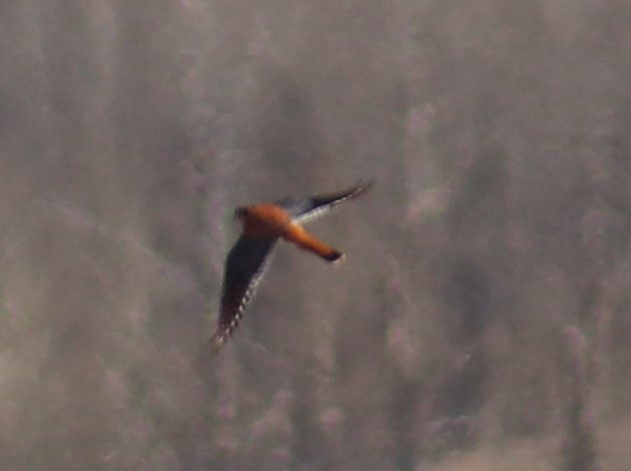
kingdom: Animalia
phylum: Chordata
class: Aves
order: Falconiformes
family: Falconidae
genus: Falco
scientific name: Falco sparverius
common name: American kestrel
